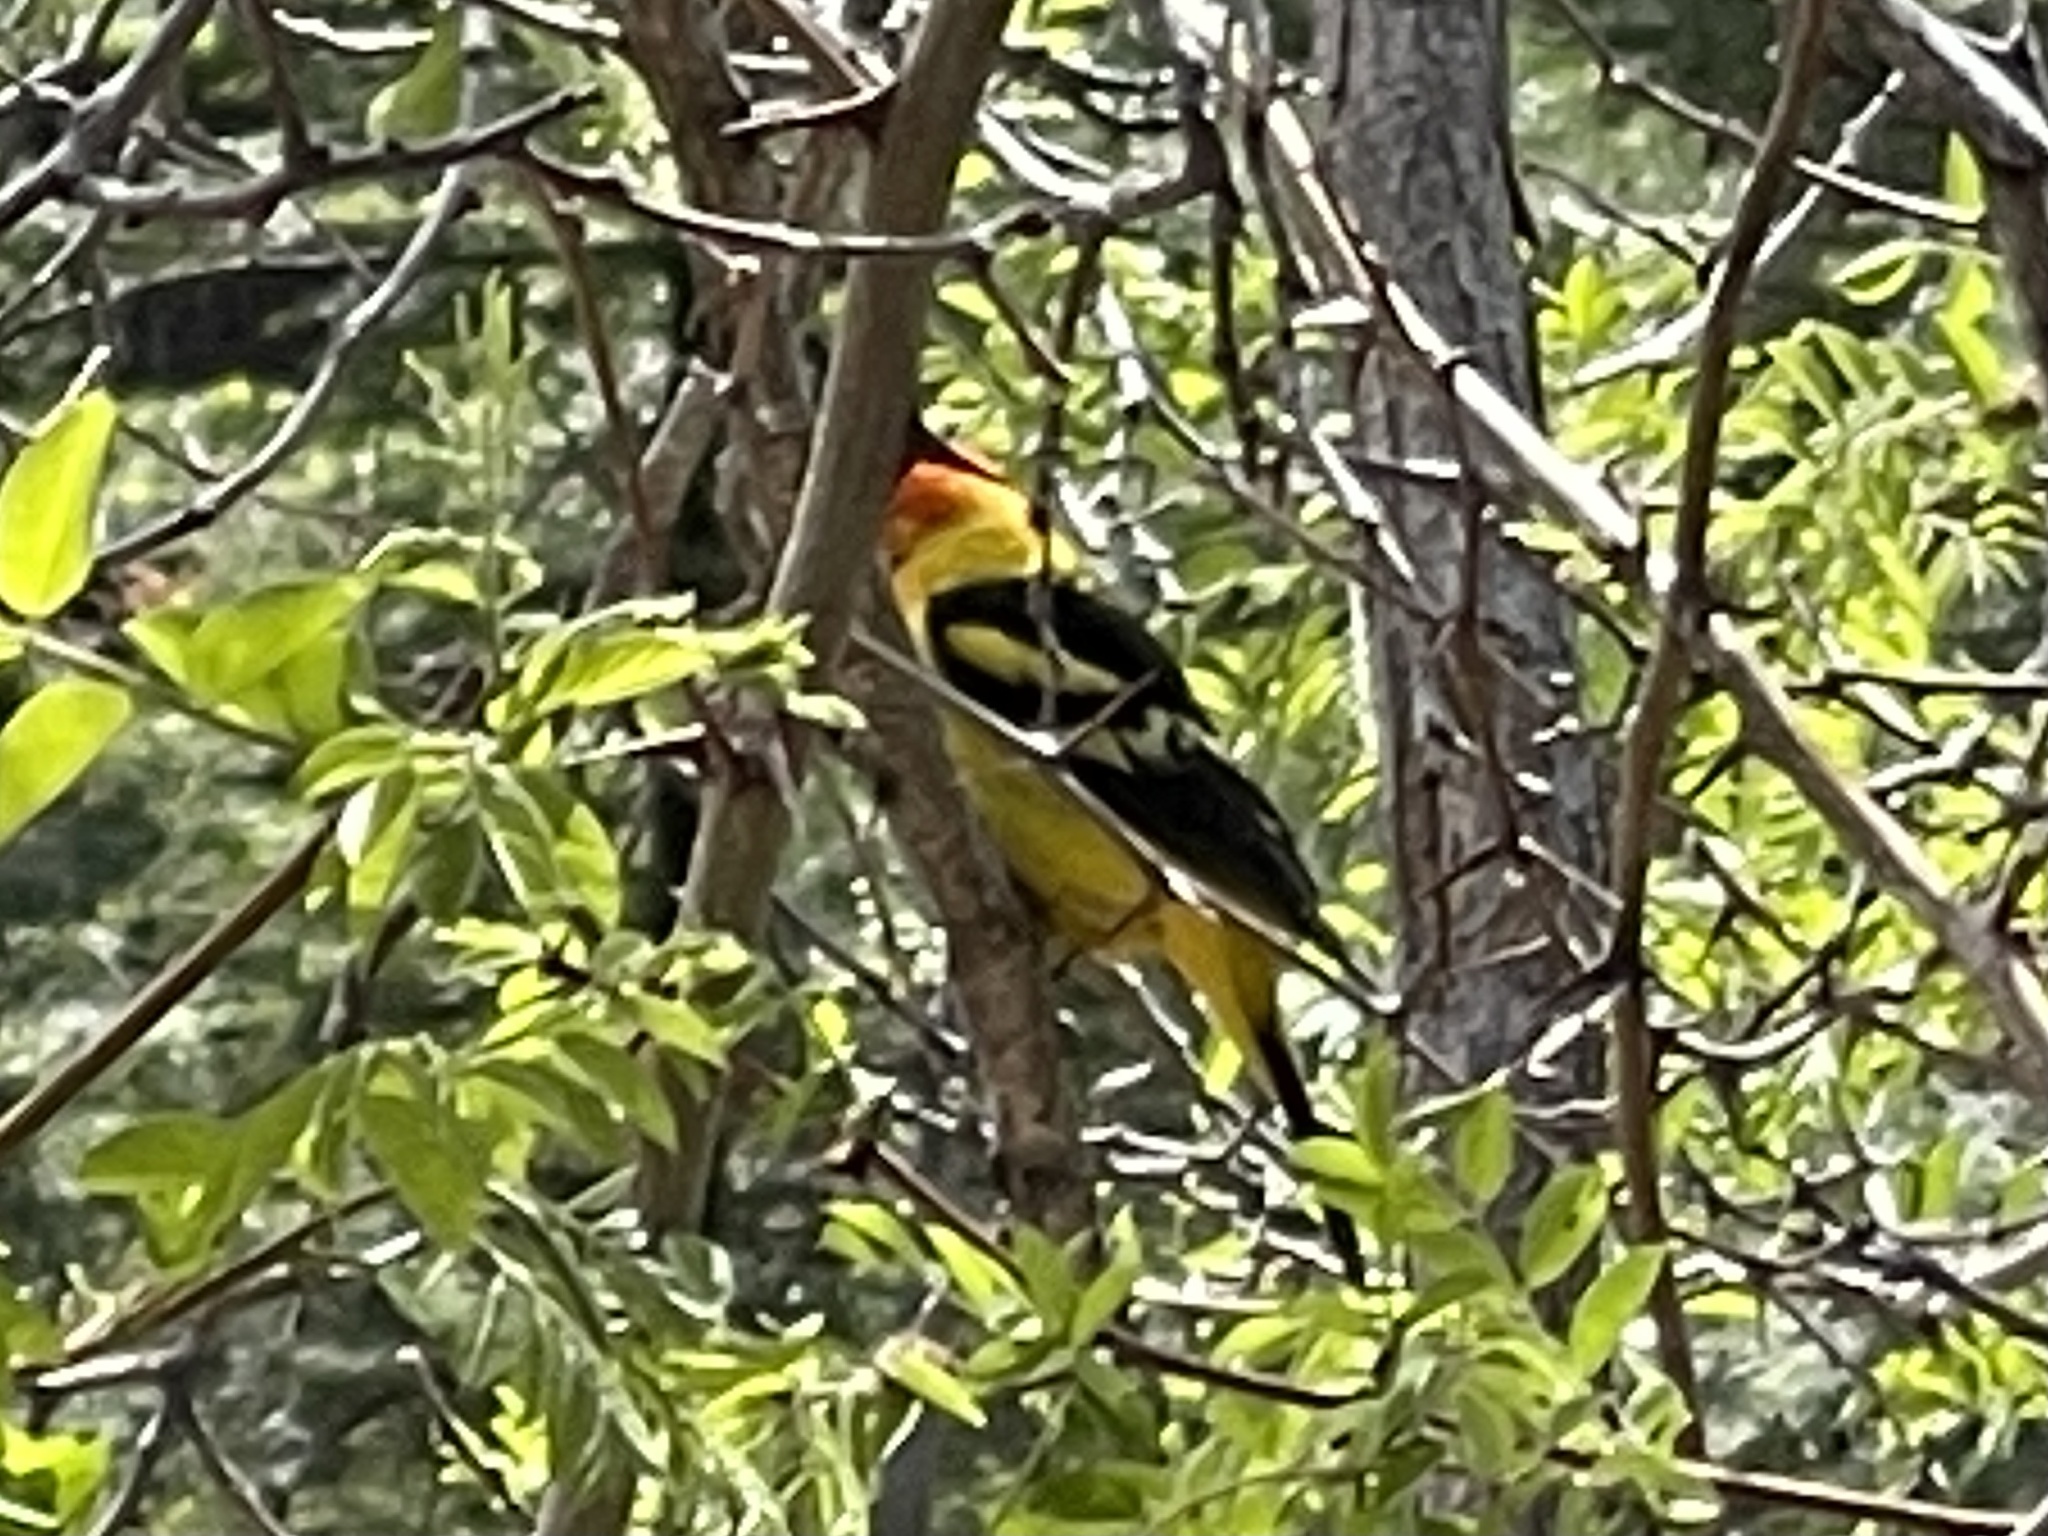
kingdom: Animalia
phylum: Chordata
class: Aves
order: Passeriformes
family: Cardinalidae
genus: Piranga
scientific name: Piranga ludoviciana
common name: Western tanager
